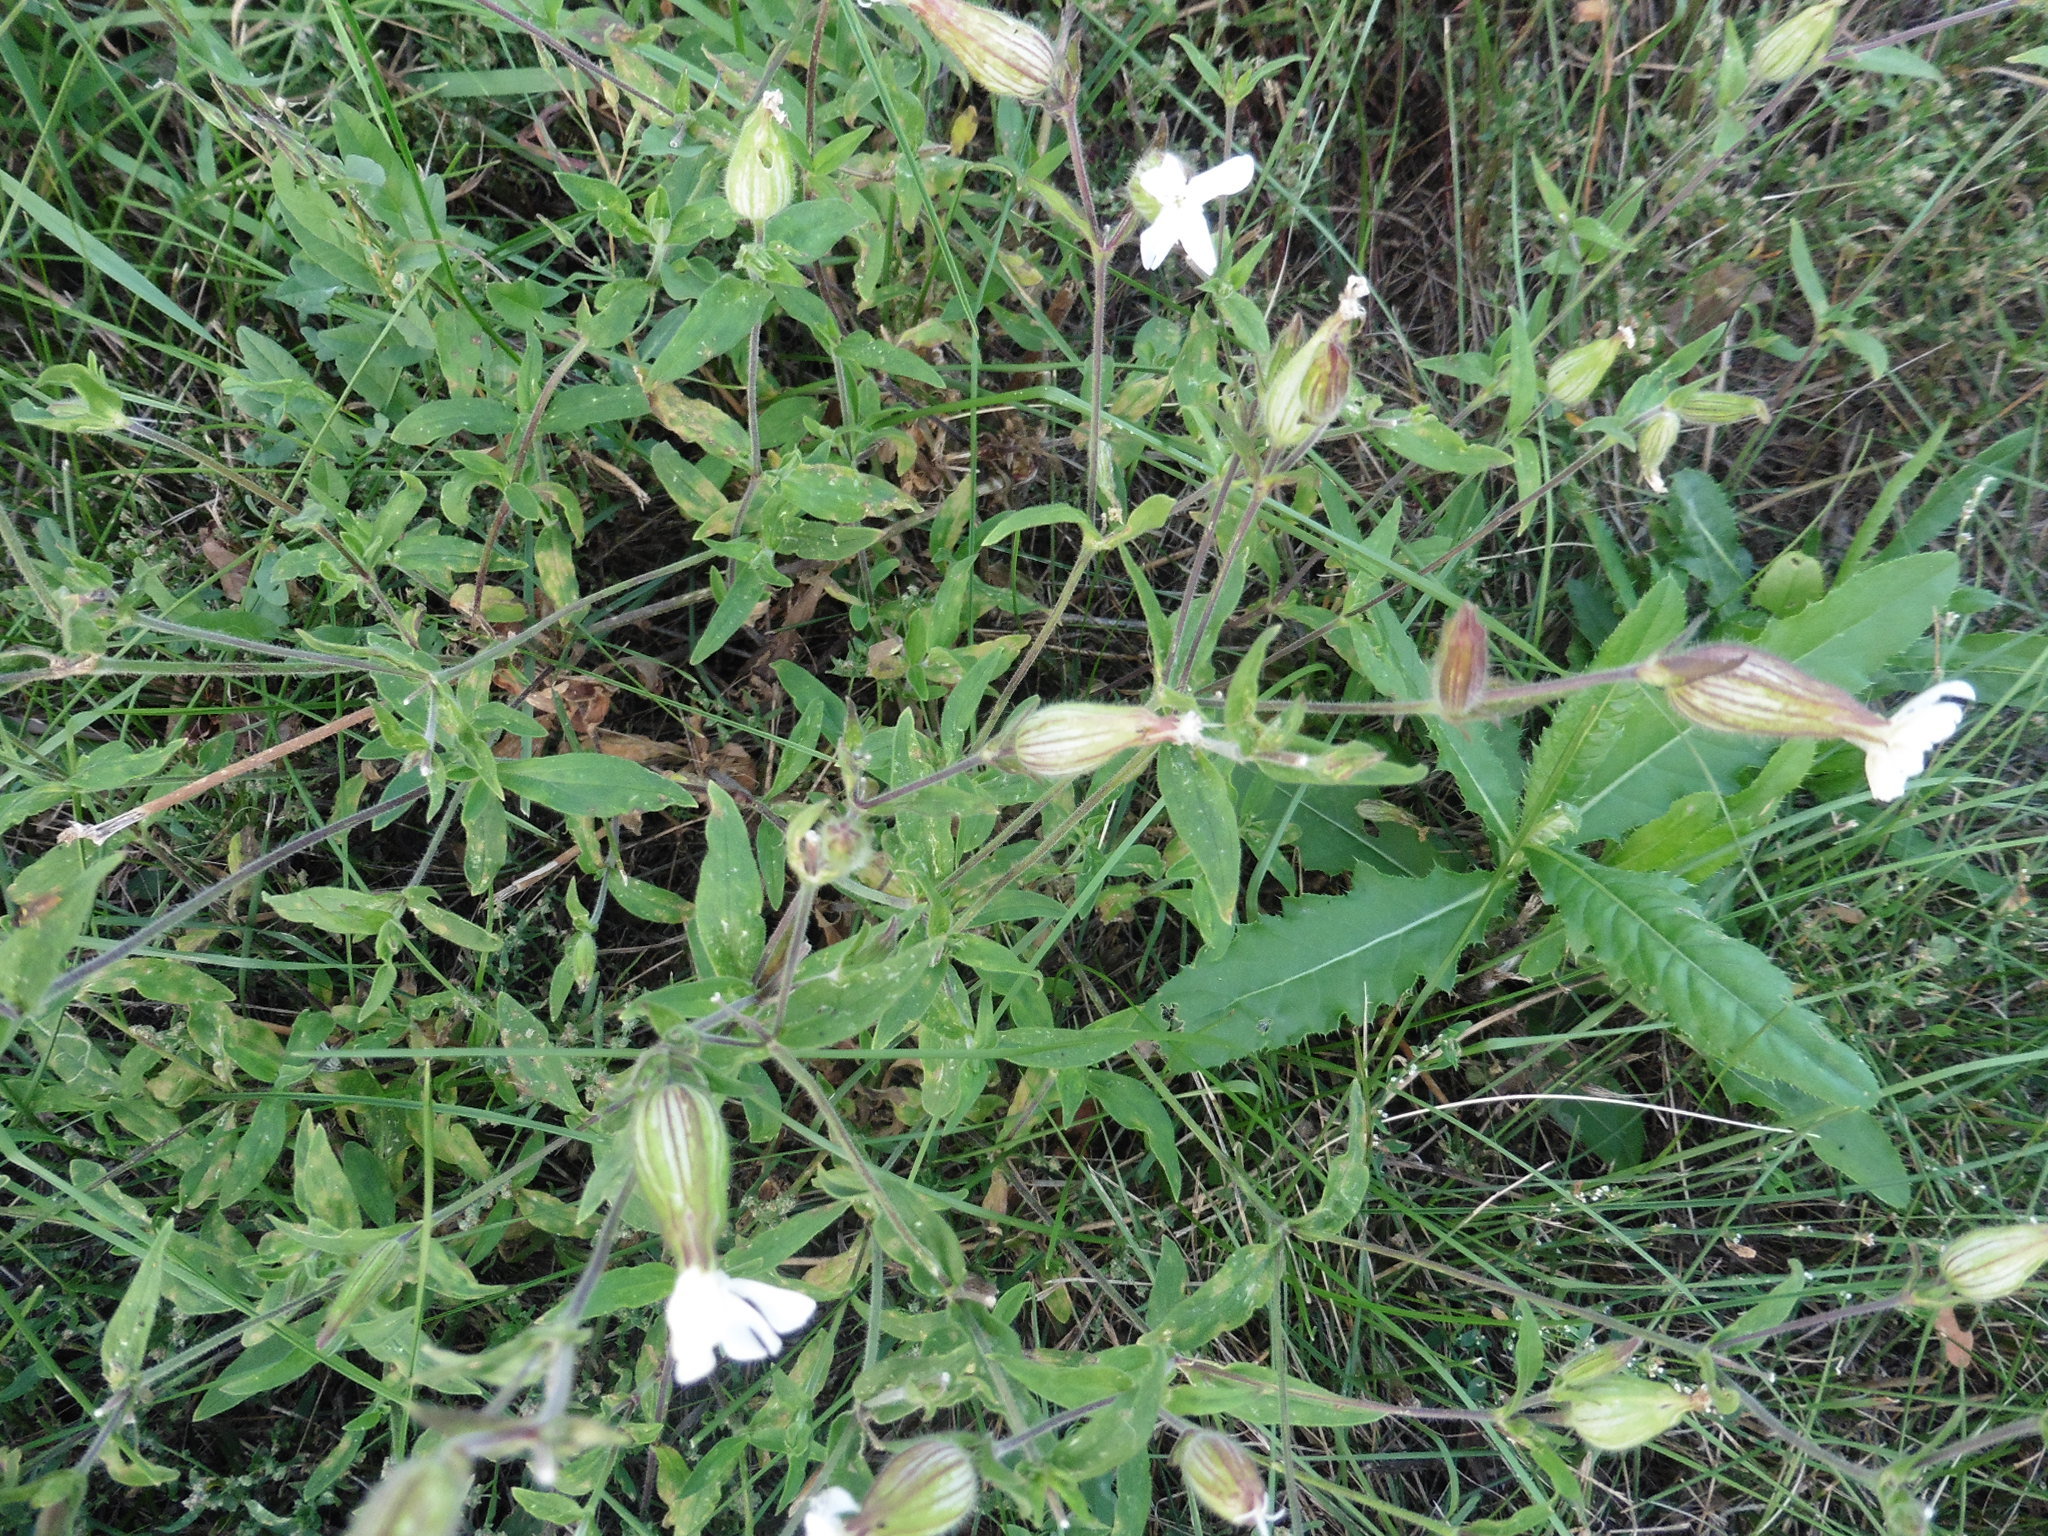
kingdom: Plantae
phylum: Tracheophyta
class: Magnoliopsida
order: Caryophyllales
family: Caryophyllaceae
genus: Silene
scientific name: Silene latifolia
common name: White campion
